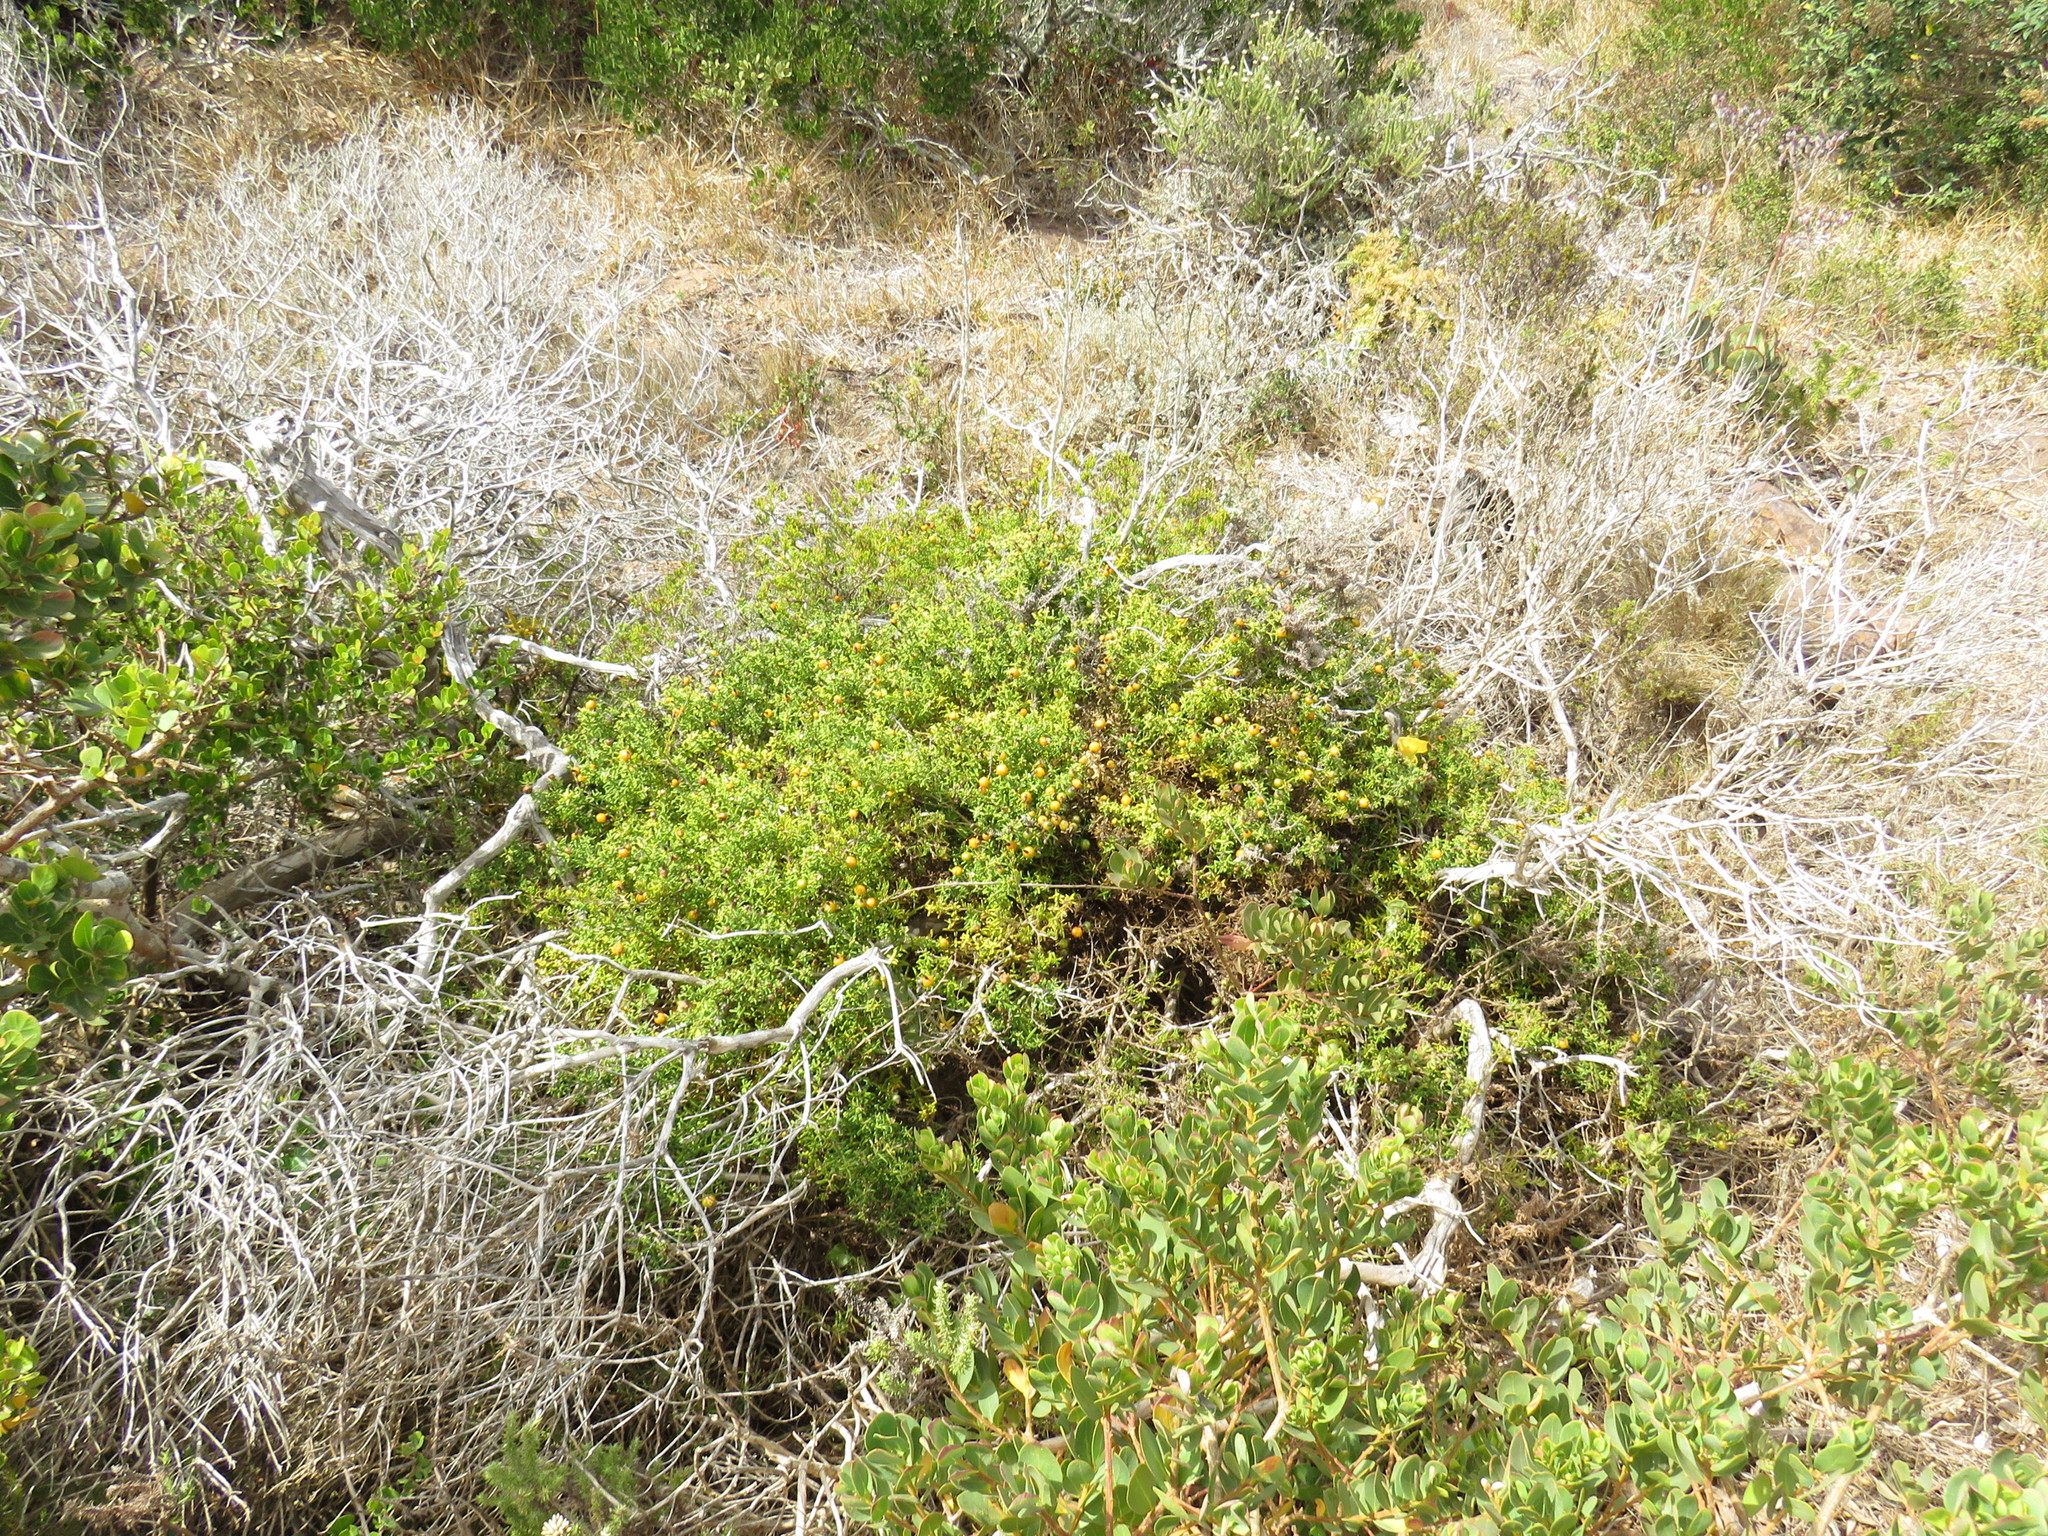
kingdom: Plantae
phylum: Tracheophyta
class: Magnoliopsida
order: Gentianales
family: Gentianaceae
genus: Chironia
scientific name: Chironia baccifera
